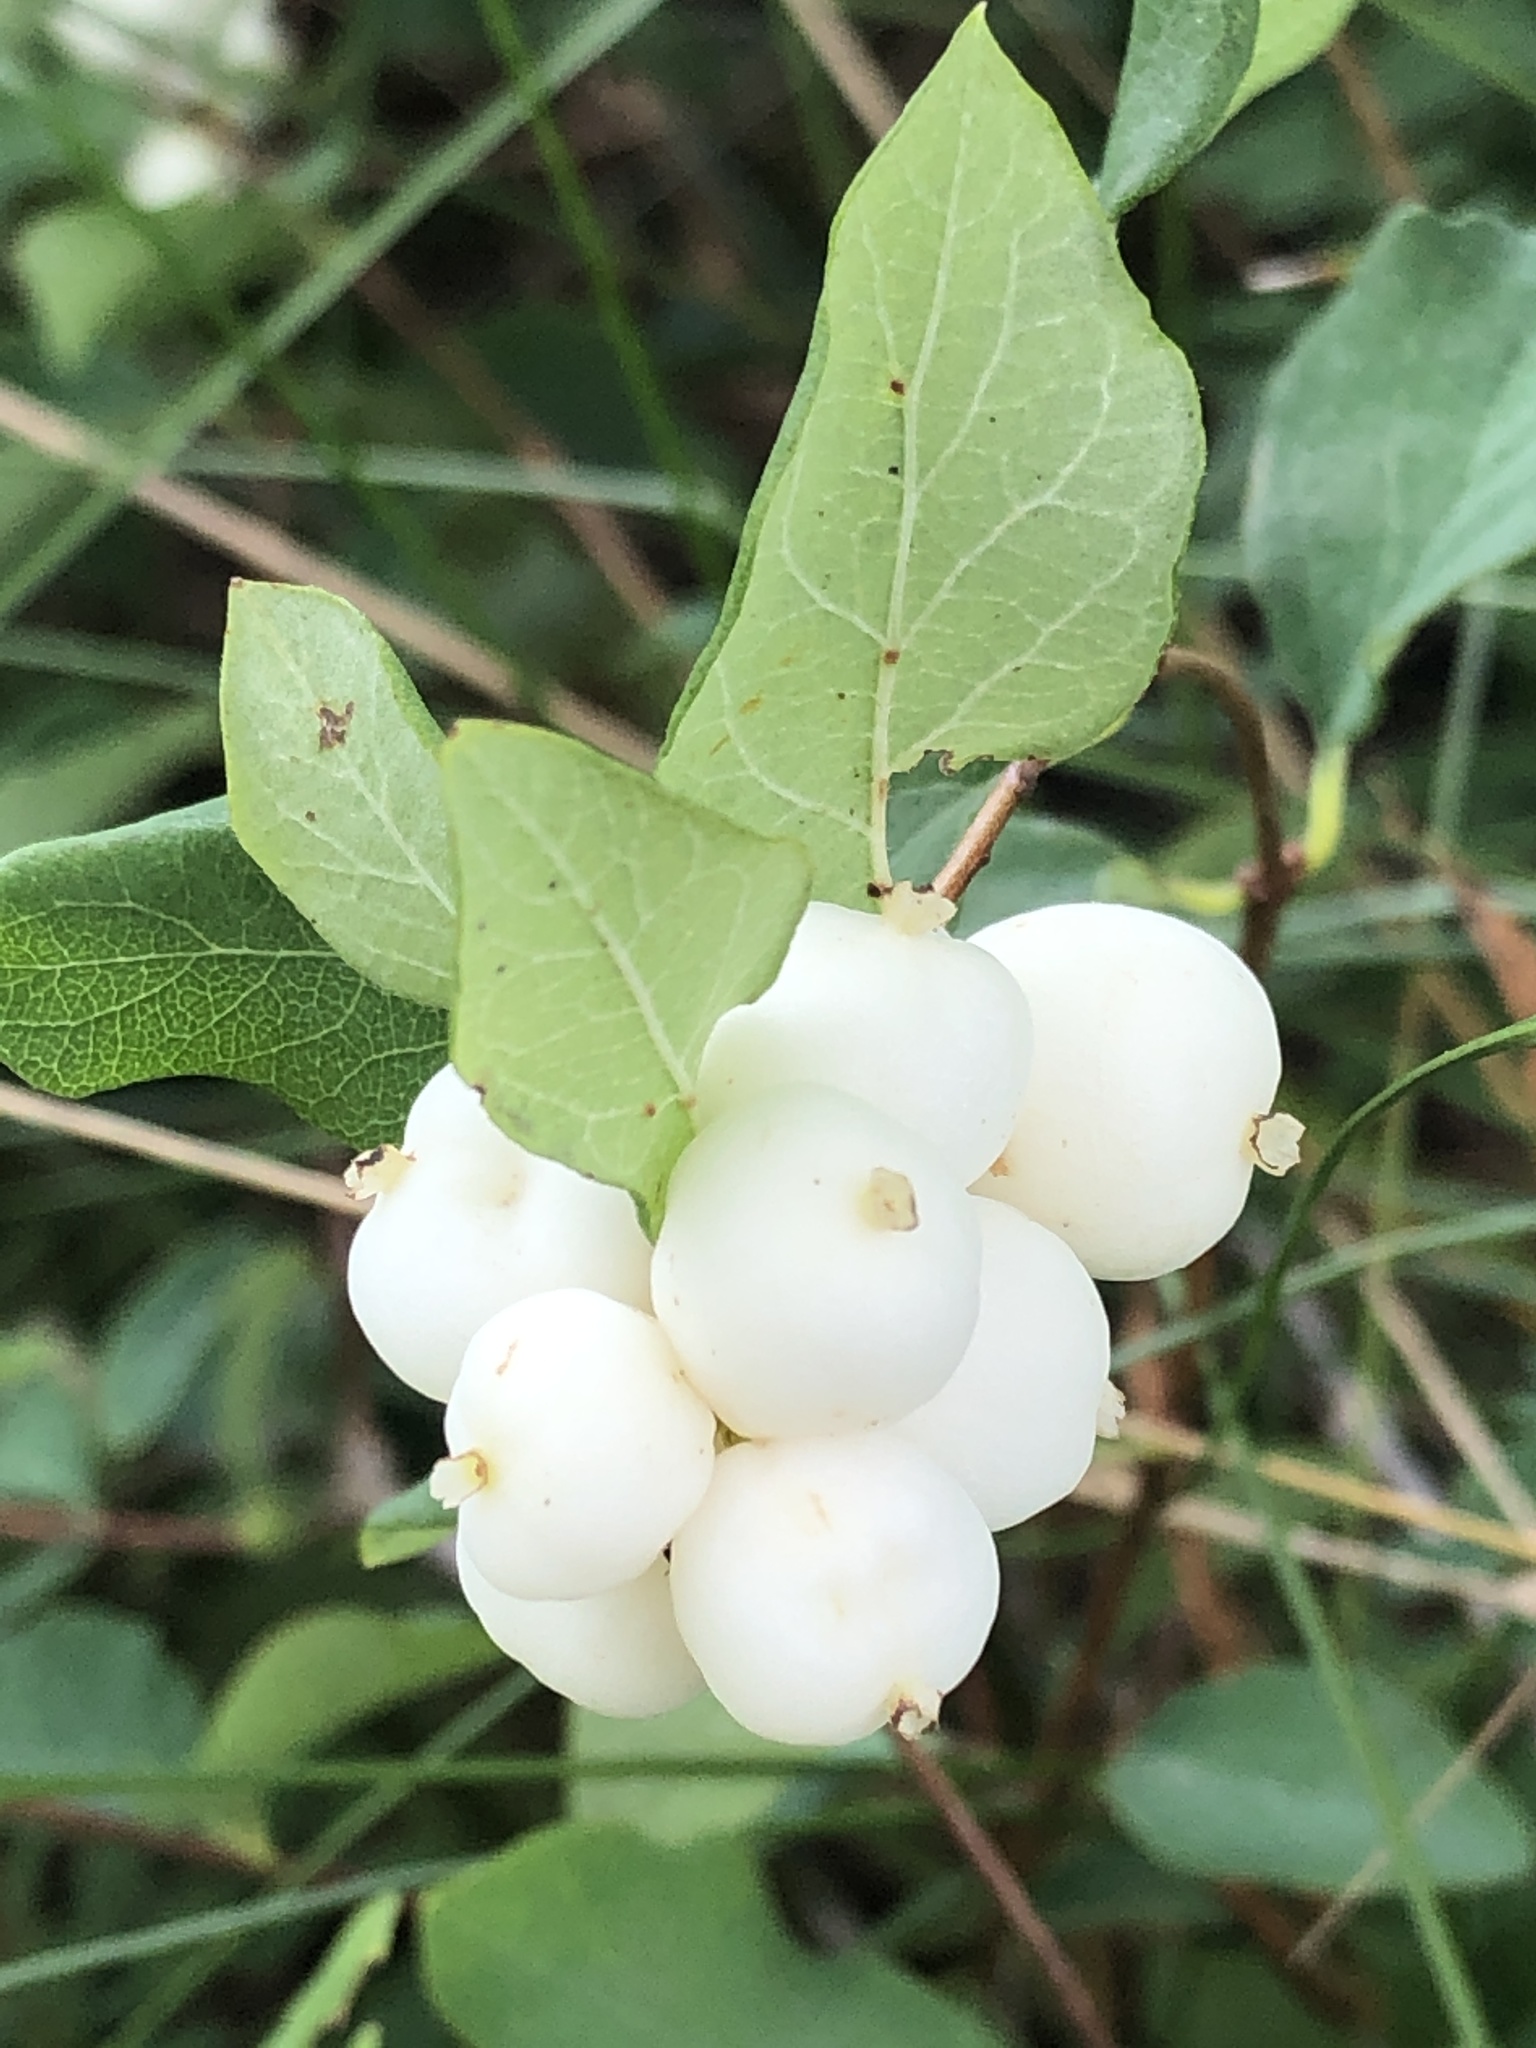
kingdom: Plantae
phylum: Tracheophyta
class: Magnoliopsida
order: Dipsacales
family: Caprifoliaceae
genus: Symphoricarpos
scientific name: Symphoricarpos albus
